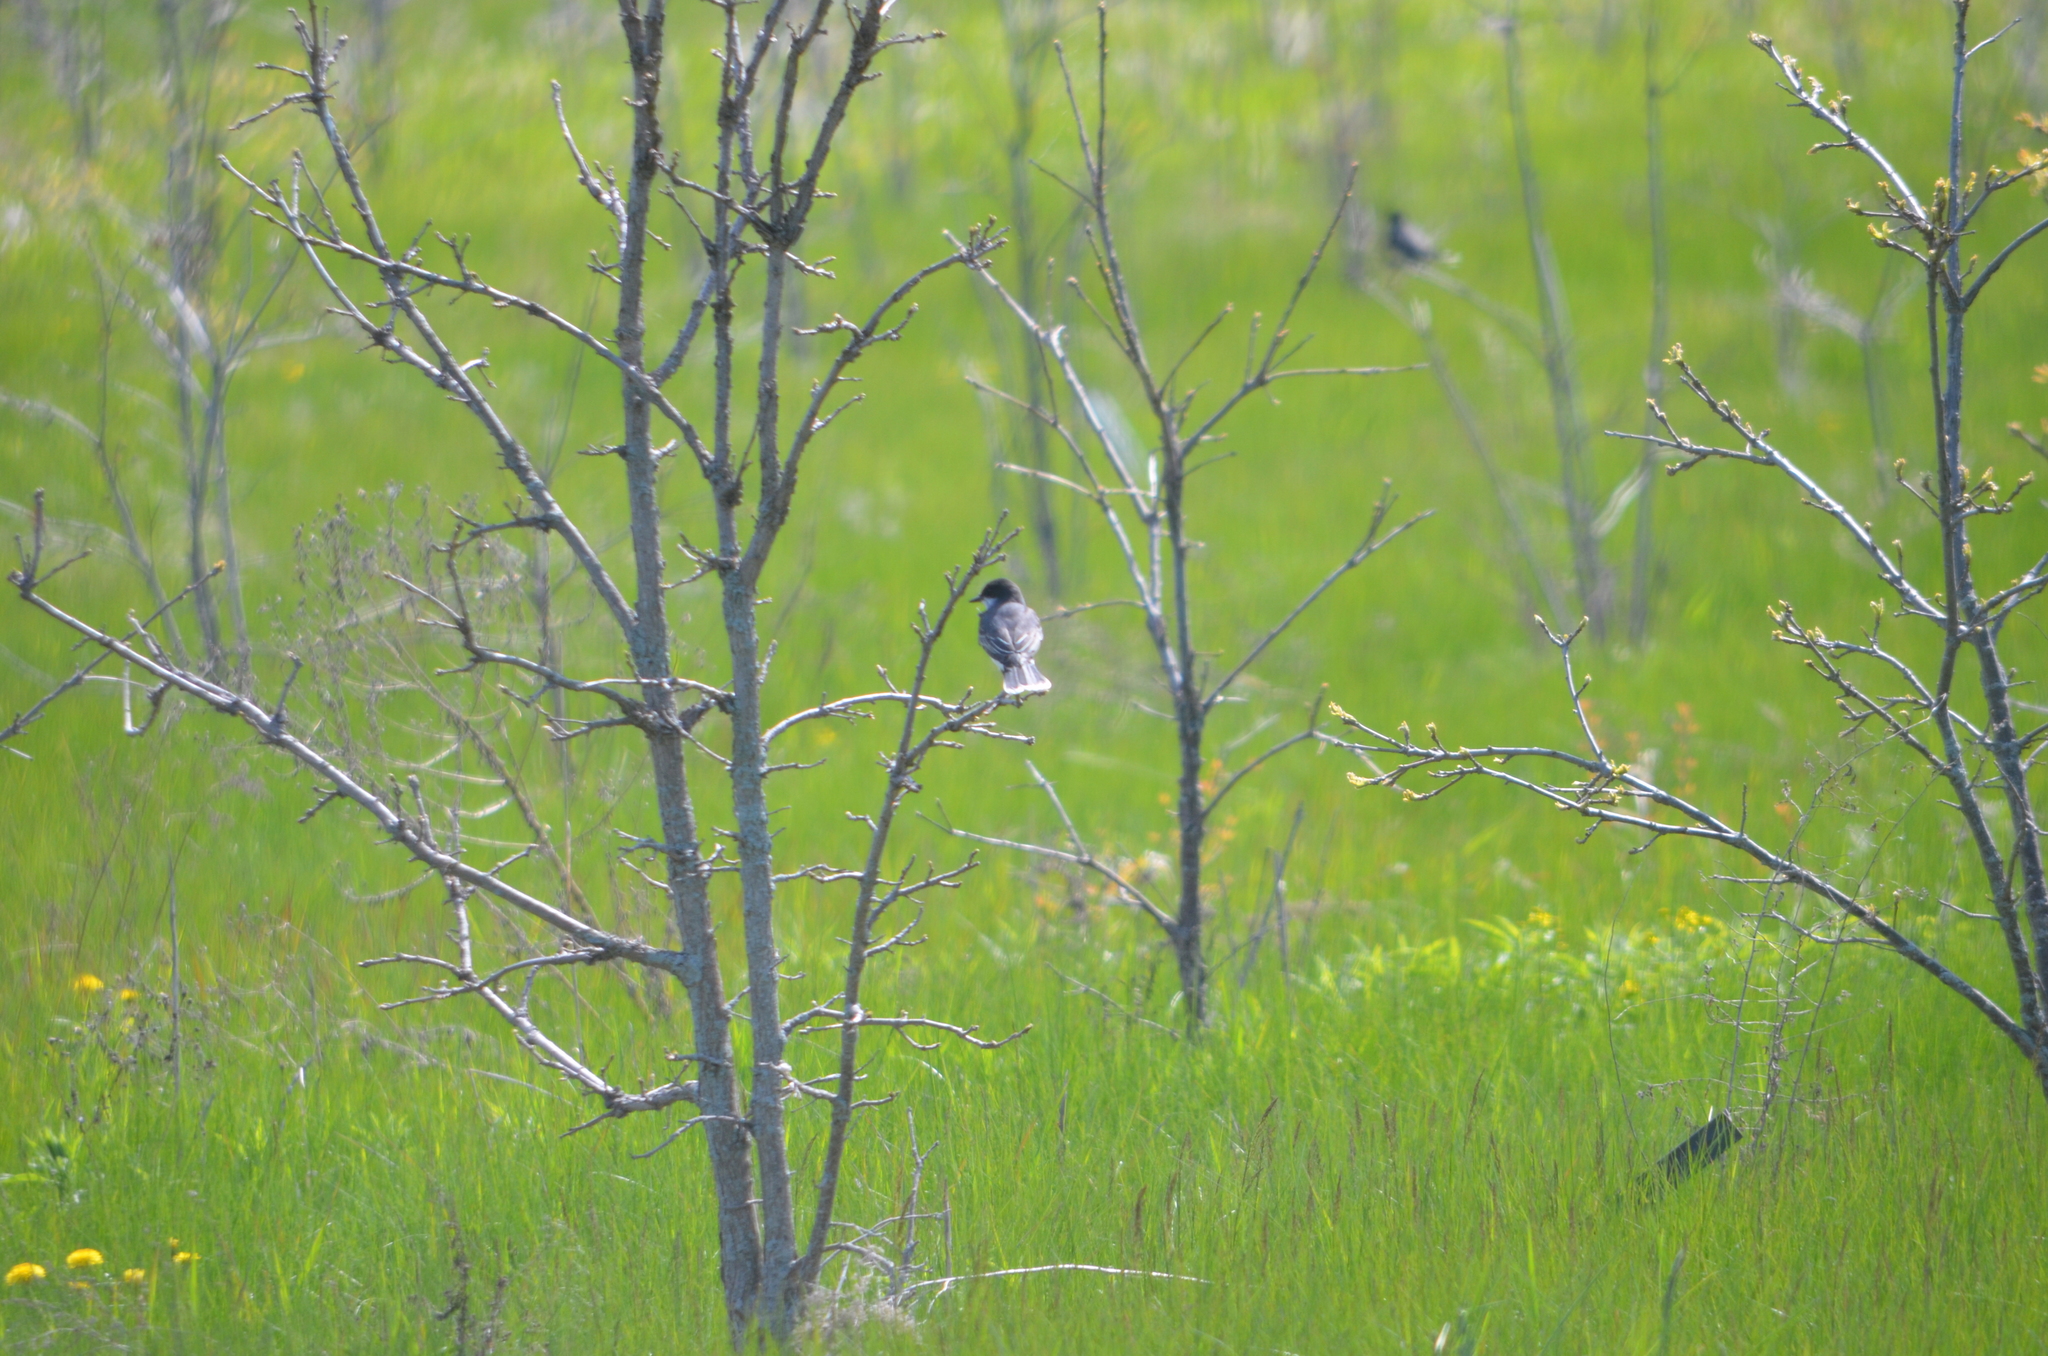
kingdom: Animalia
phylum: Chordata
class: Aves
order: Passeriformes
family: Tyrannidae
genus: Tyrannus
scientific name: Tyrannus tyrannus
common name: Eastern kingbird
